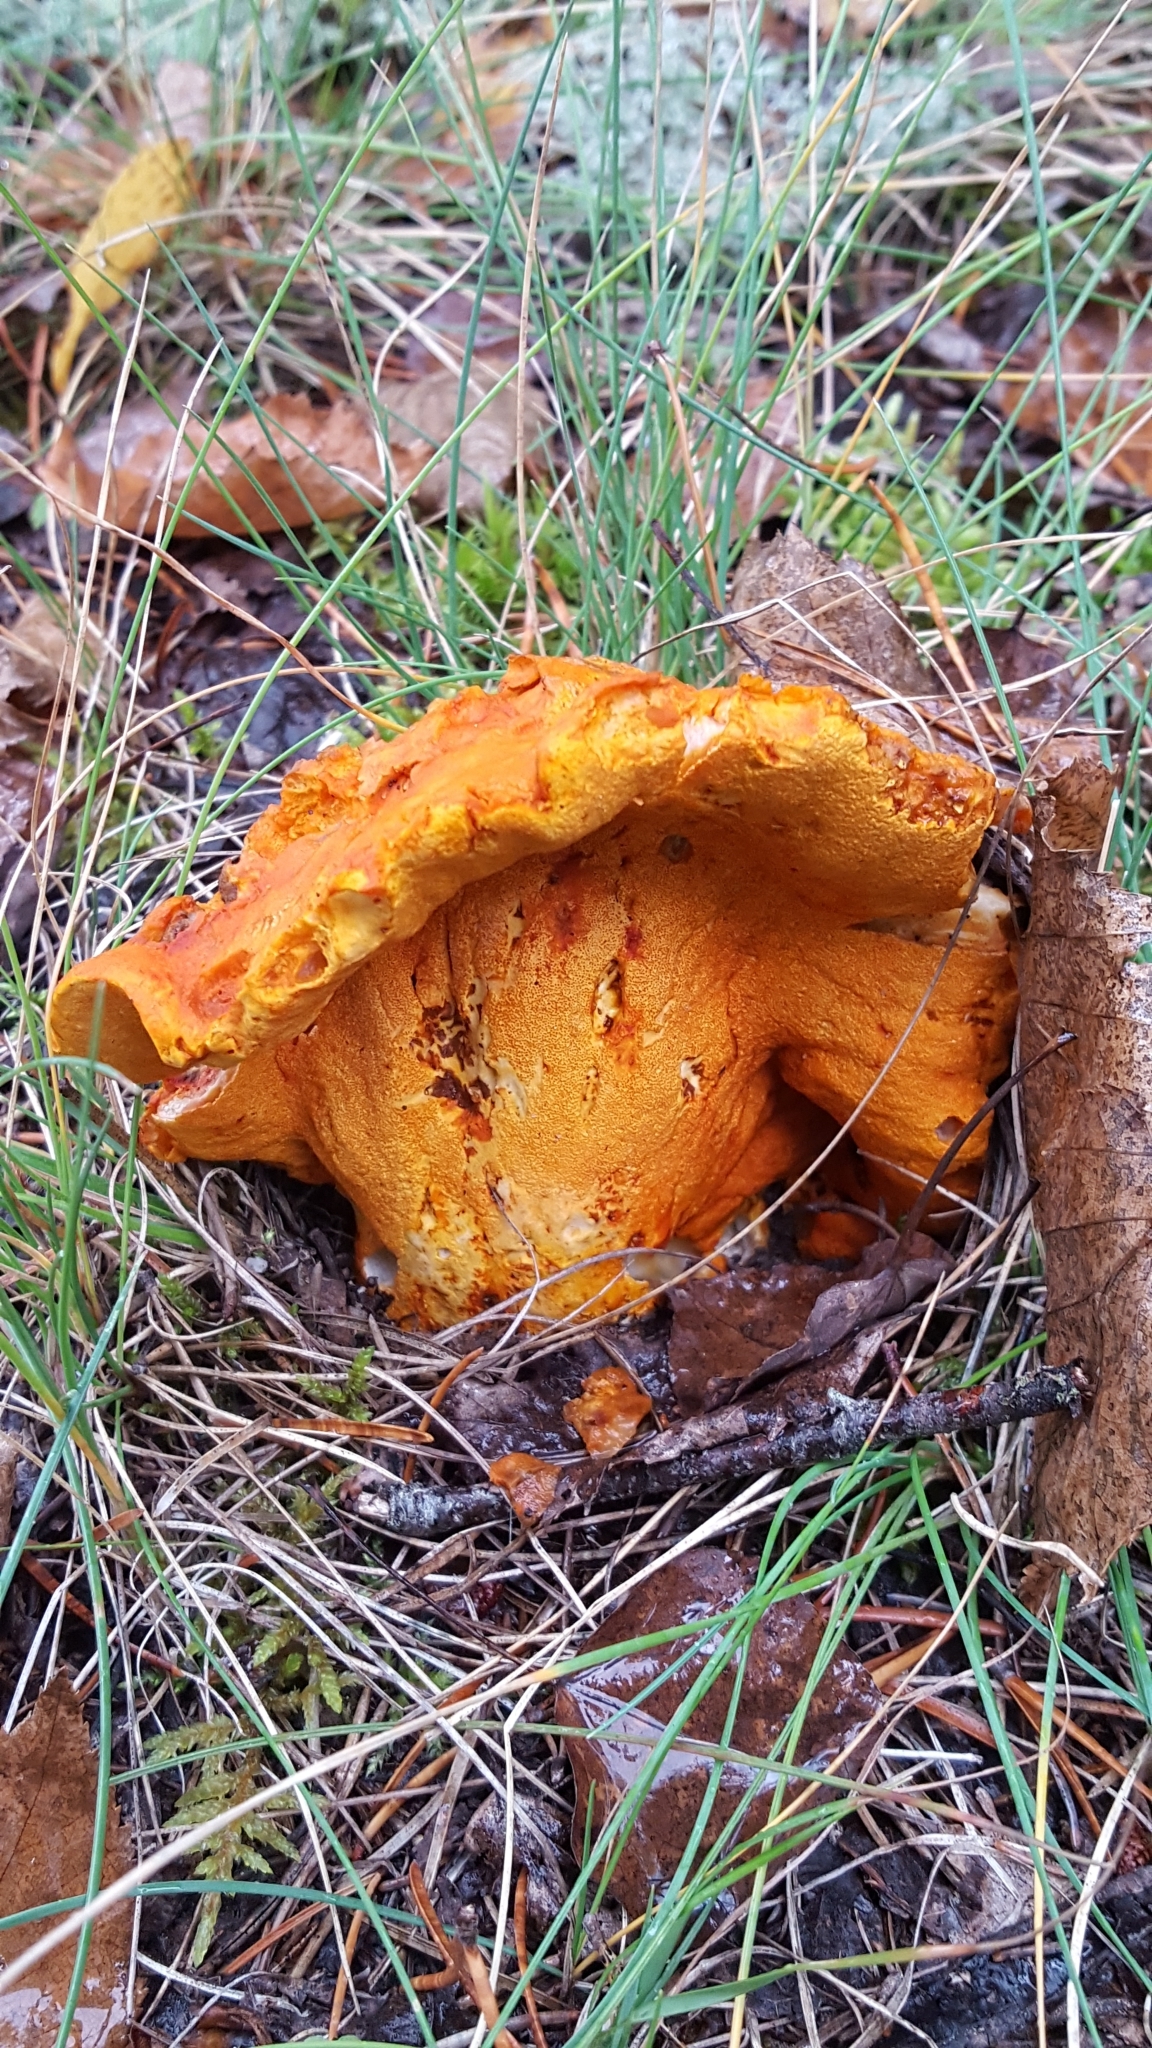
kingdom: Fungi
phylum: Ascomycota
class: Sordariomycetes
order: Hypocreales
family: Hypocreaceae
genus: Hypomyces
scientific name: Hypomyces lactifluorum
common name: Lobster mushroom
